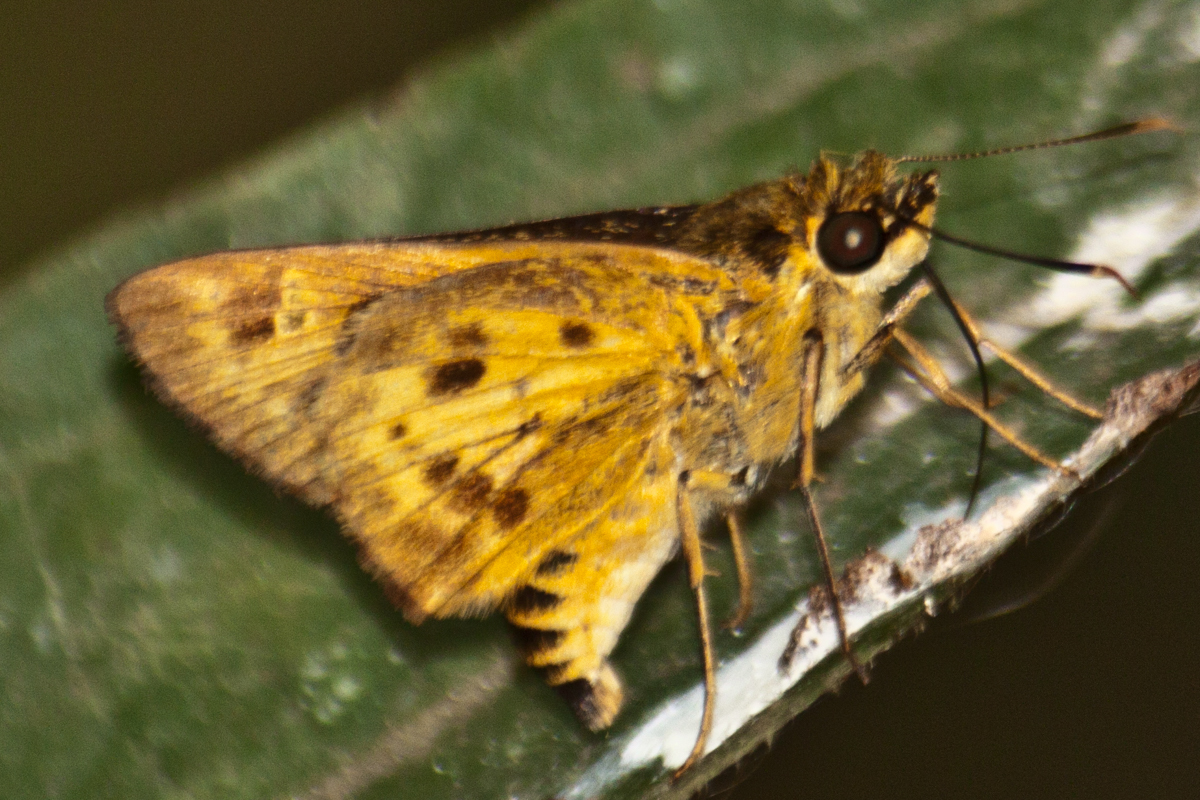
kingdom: Animalia
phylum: Arthropoda
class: Insecta
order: Lepidoptera
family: Hesperiidae
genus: Thoressa
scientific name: Thoressa masoni
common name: Golden ace
